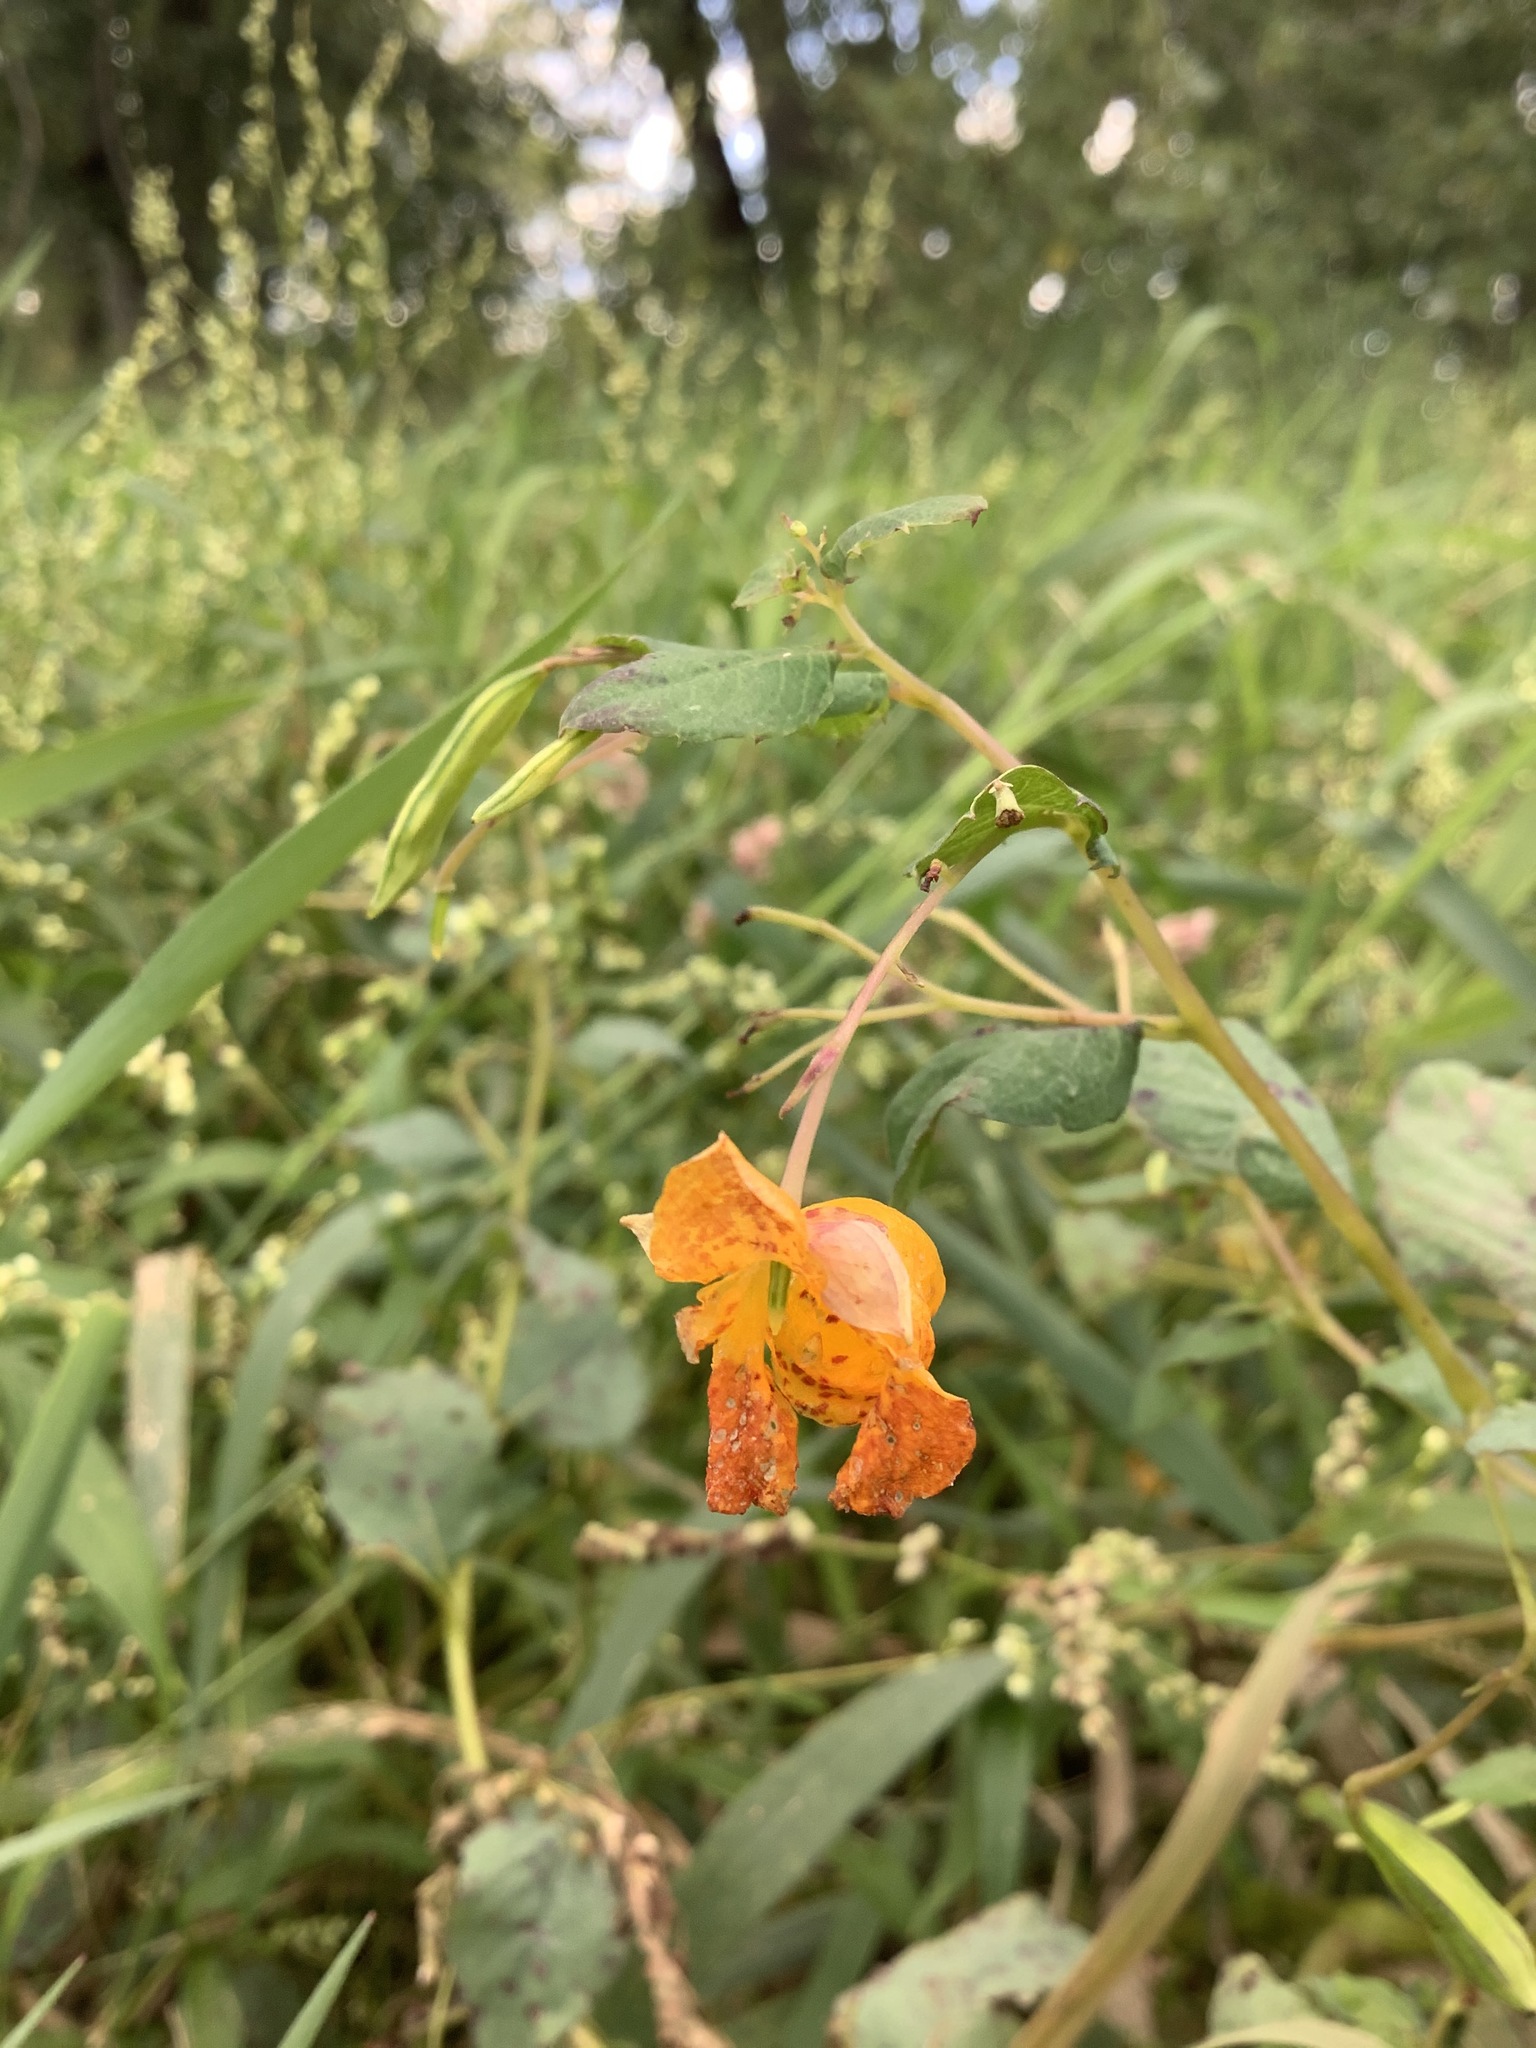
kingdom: Plantae
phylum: Tracheophyta
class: Magnoliopsida
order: Ericales
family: Balsaminaceae
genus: Impatiens
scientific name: Impatiens capensis
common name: Orange balsam
